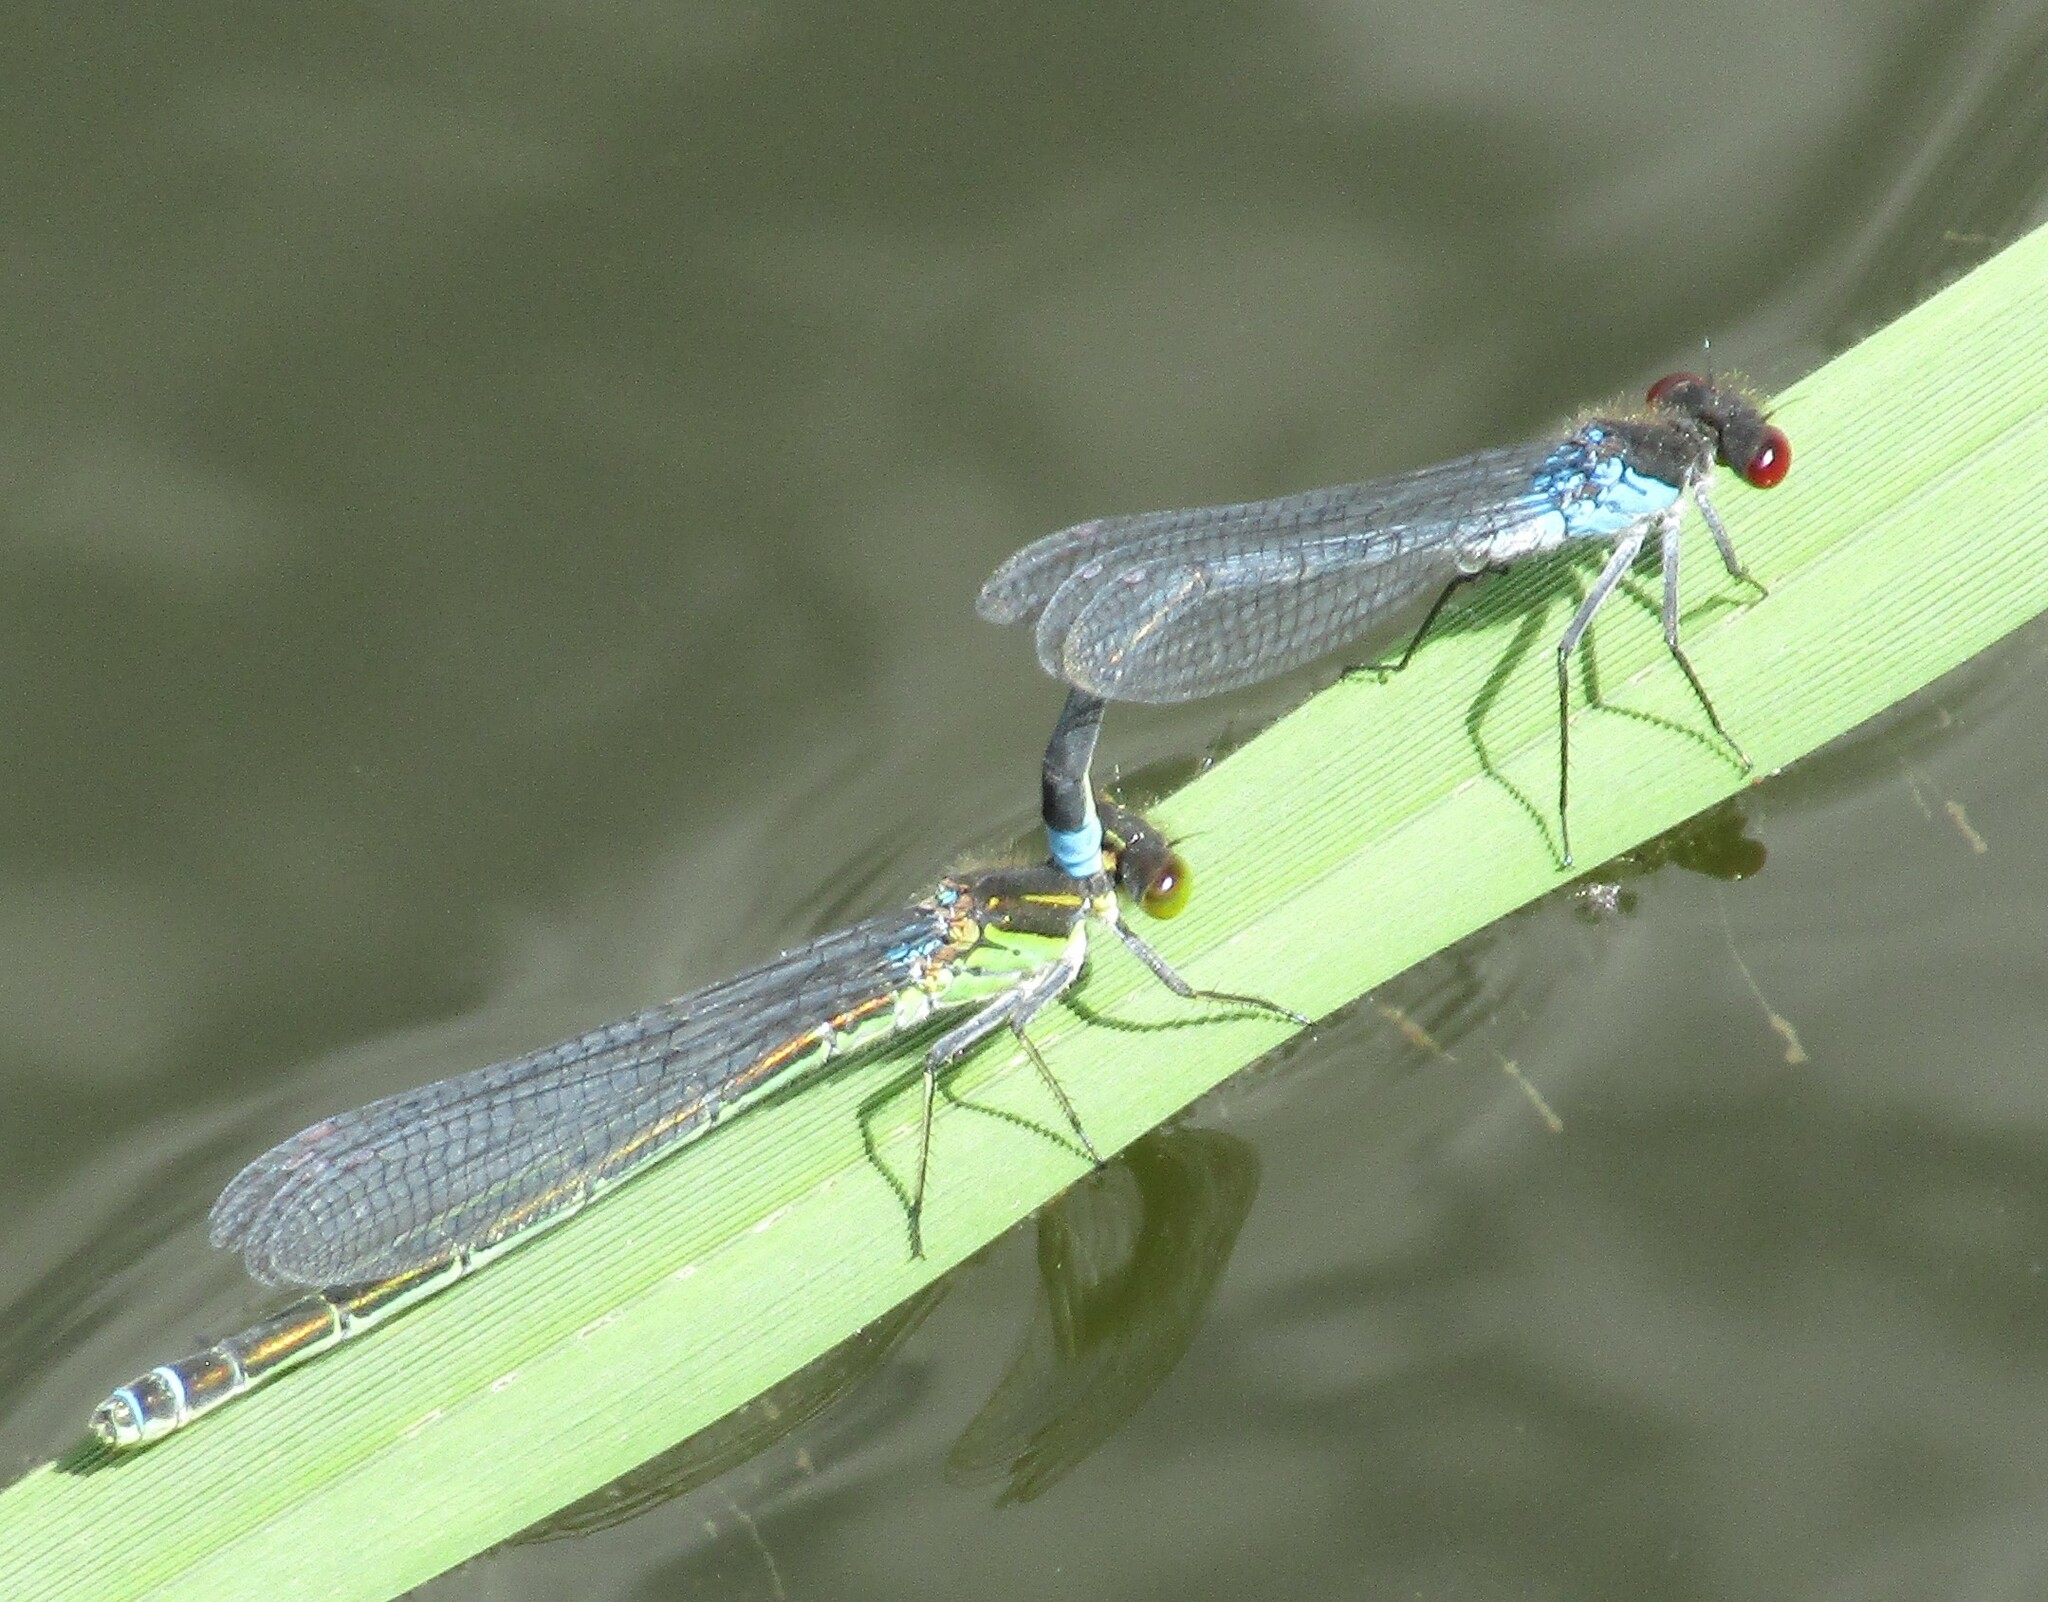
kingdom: Animalia
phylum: Arthropoda
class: Insecta
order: Odonata
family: Coenagrionidae
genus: Erythromma
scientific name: Erythromma najas
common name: Red-eyed damselfly
